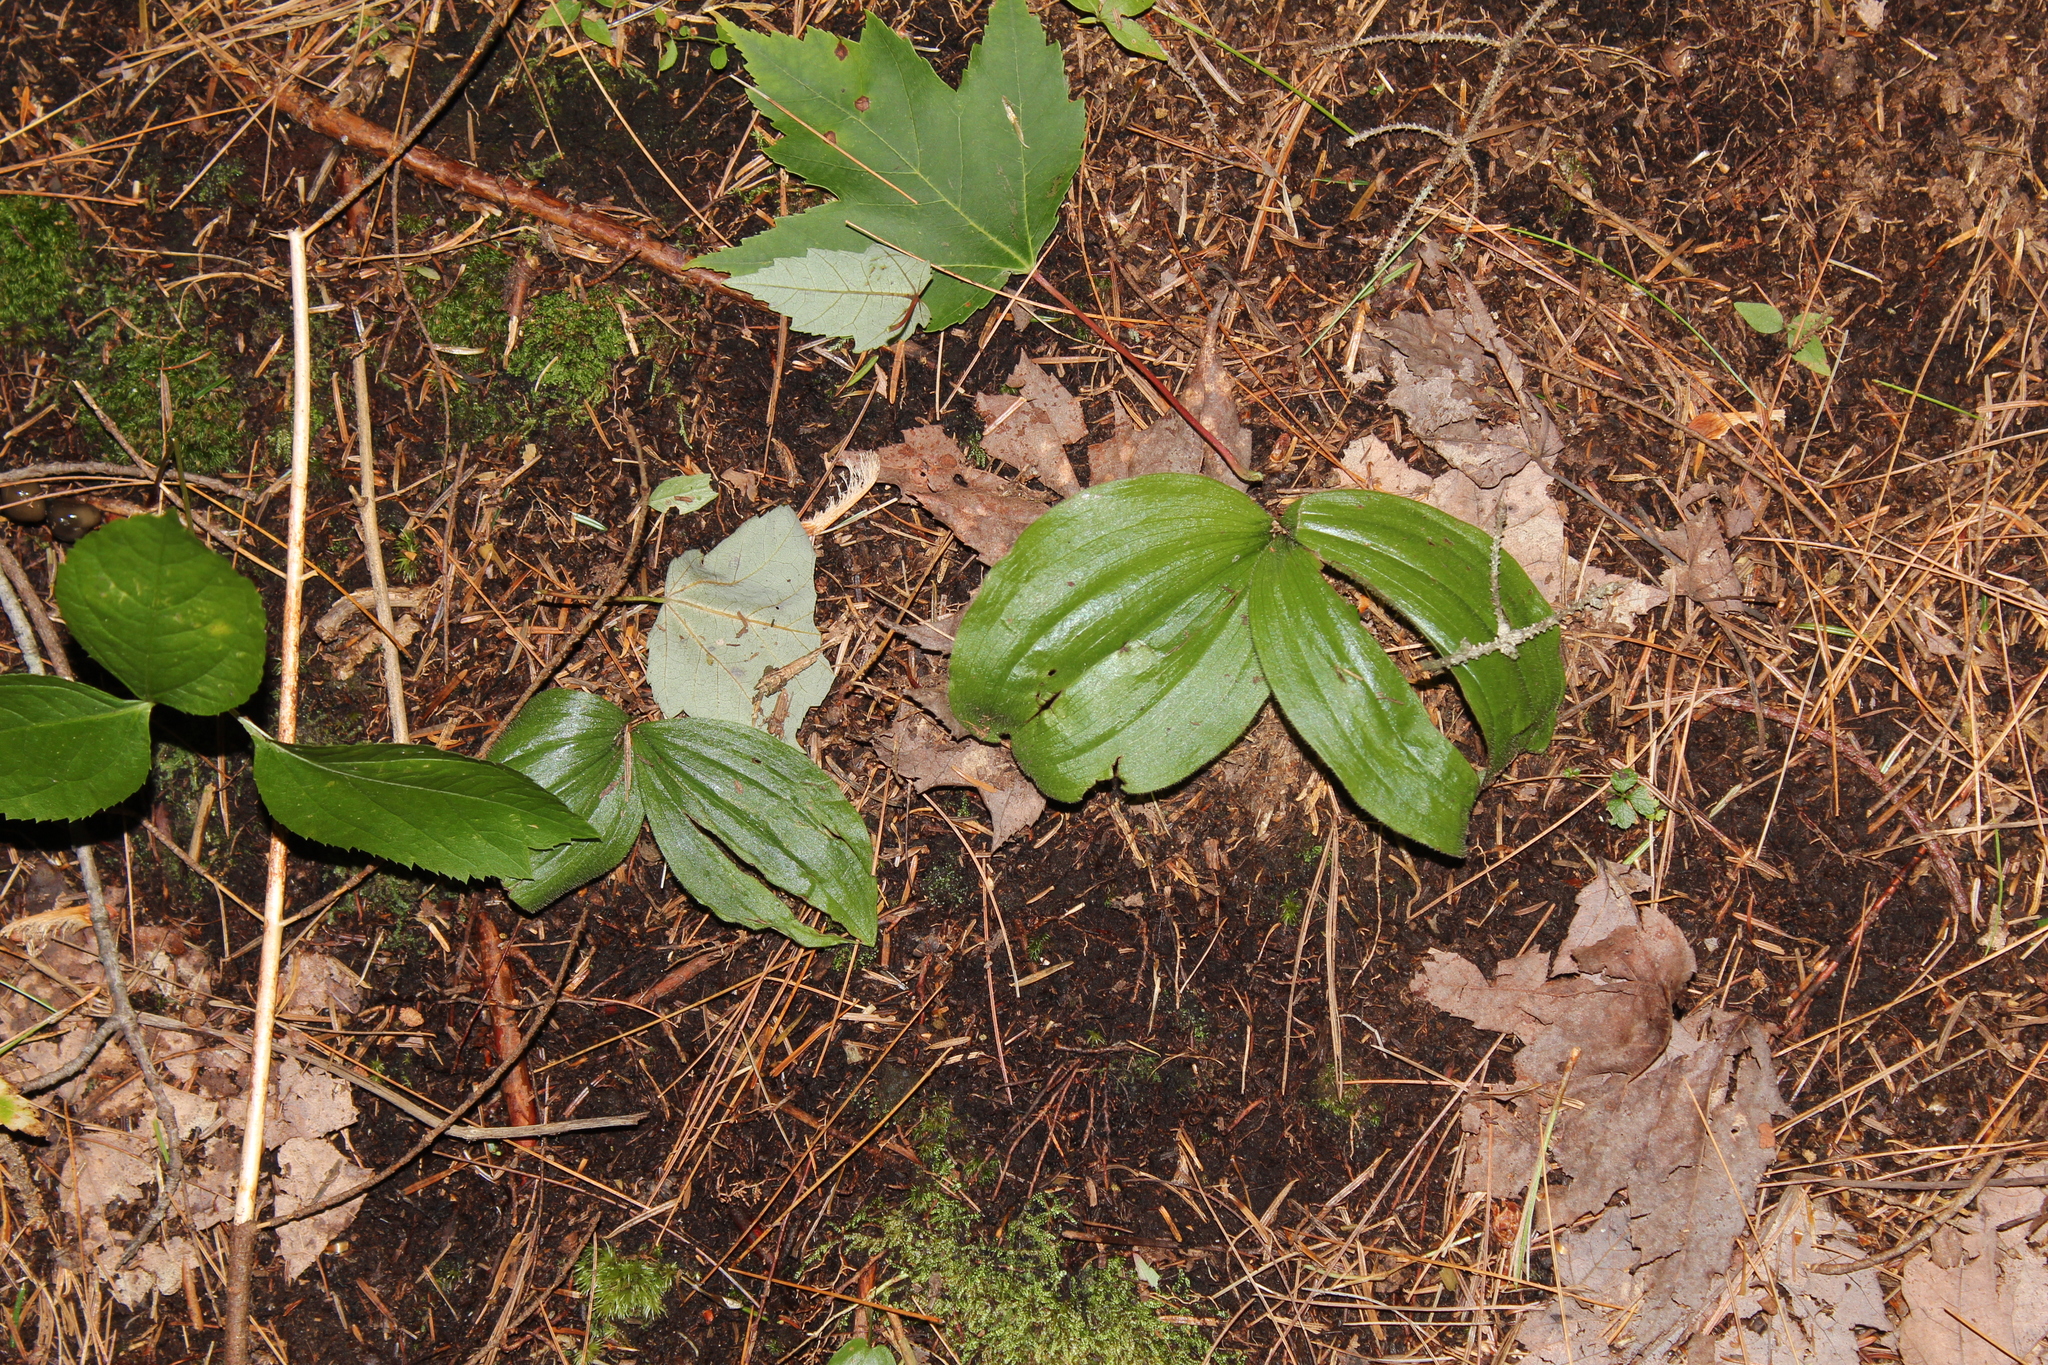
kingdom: Plantae
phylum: Tracheophyta
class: Liliopsida
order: Asparagales
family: Orchidaceae
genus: Cypripedium
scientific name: Cypripedium acaule
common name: Pink lady's-slipper
